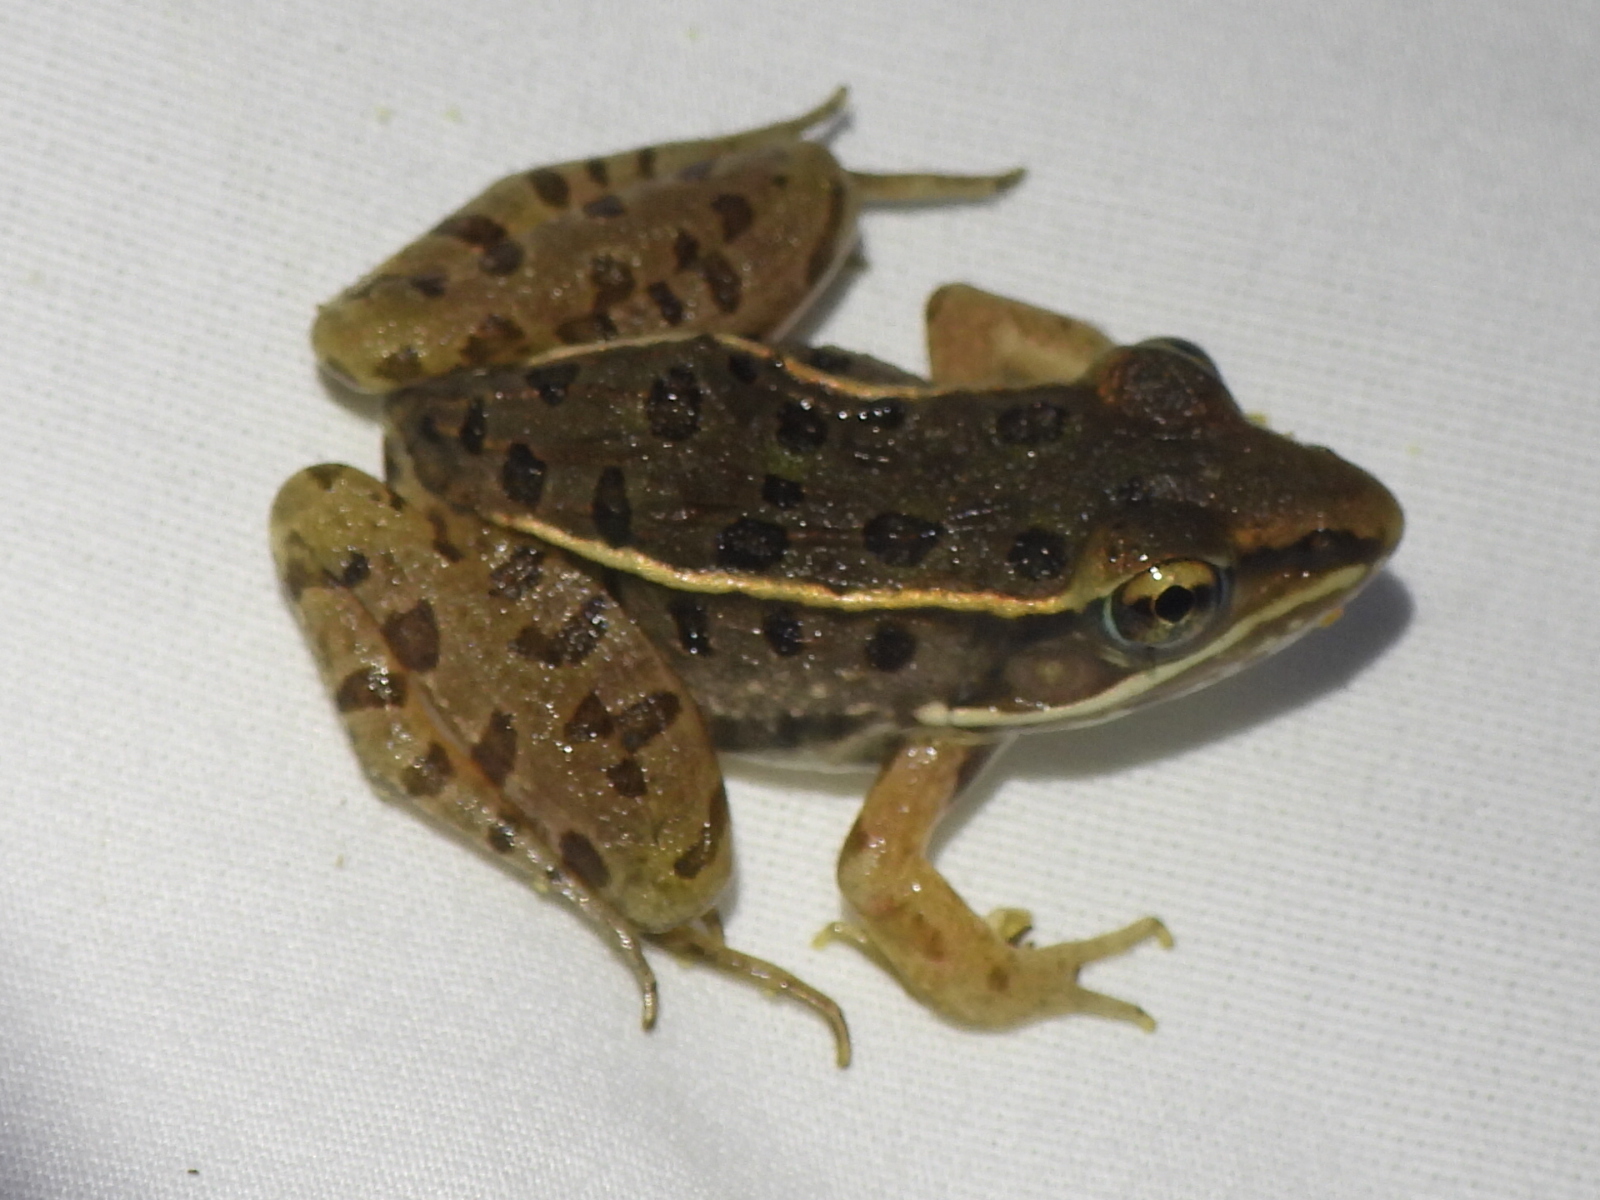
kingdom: Animalia
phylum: Chordata
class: Amphibia
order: Anura
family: Ranidae
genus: Lithobates
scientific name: Lithobates sphenocephalus
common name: Southern leopard frog
